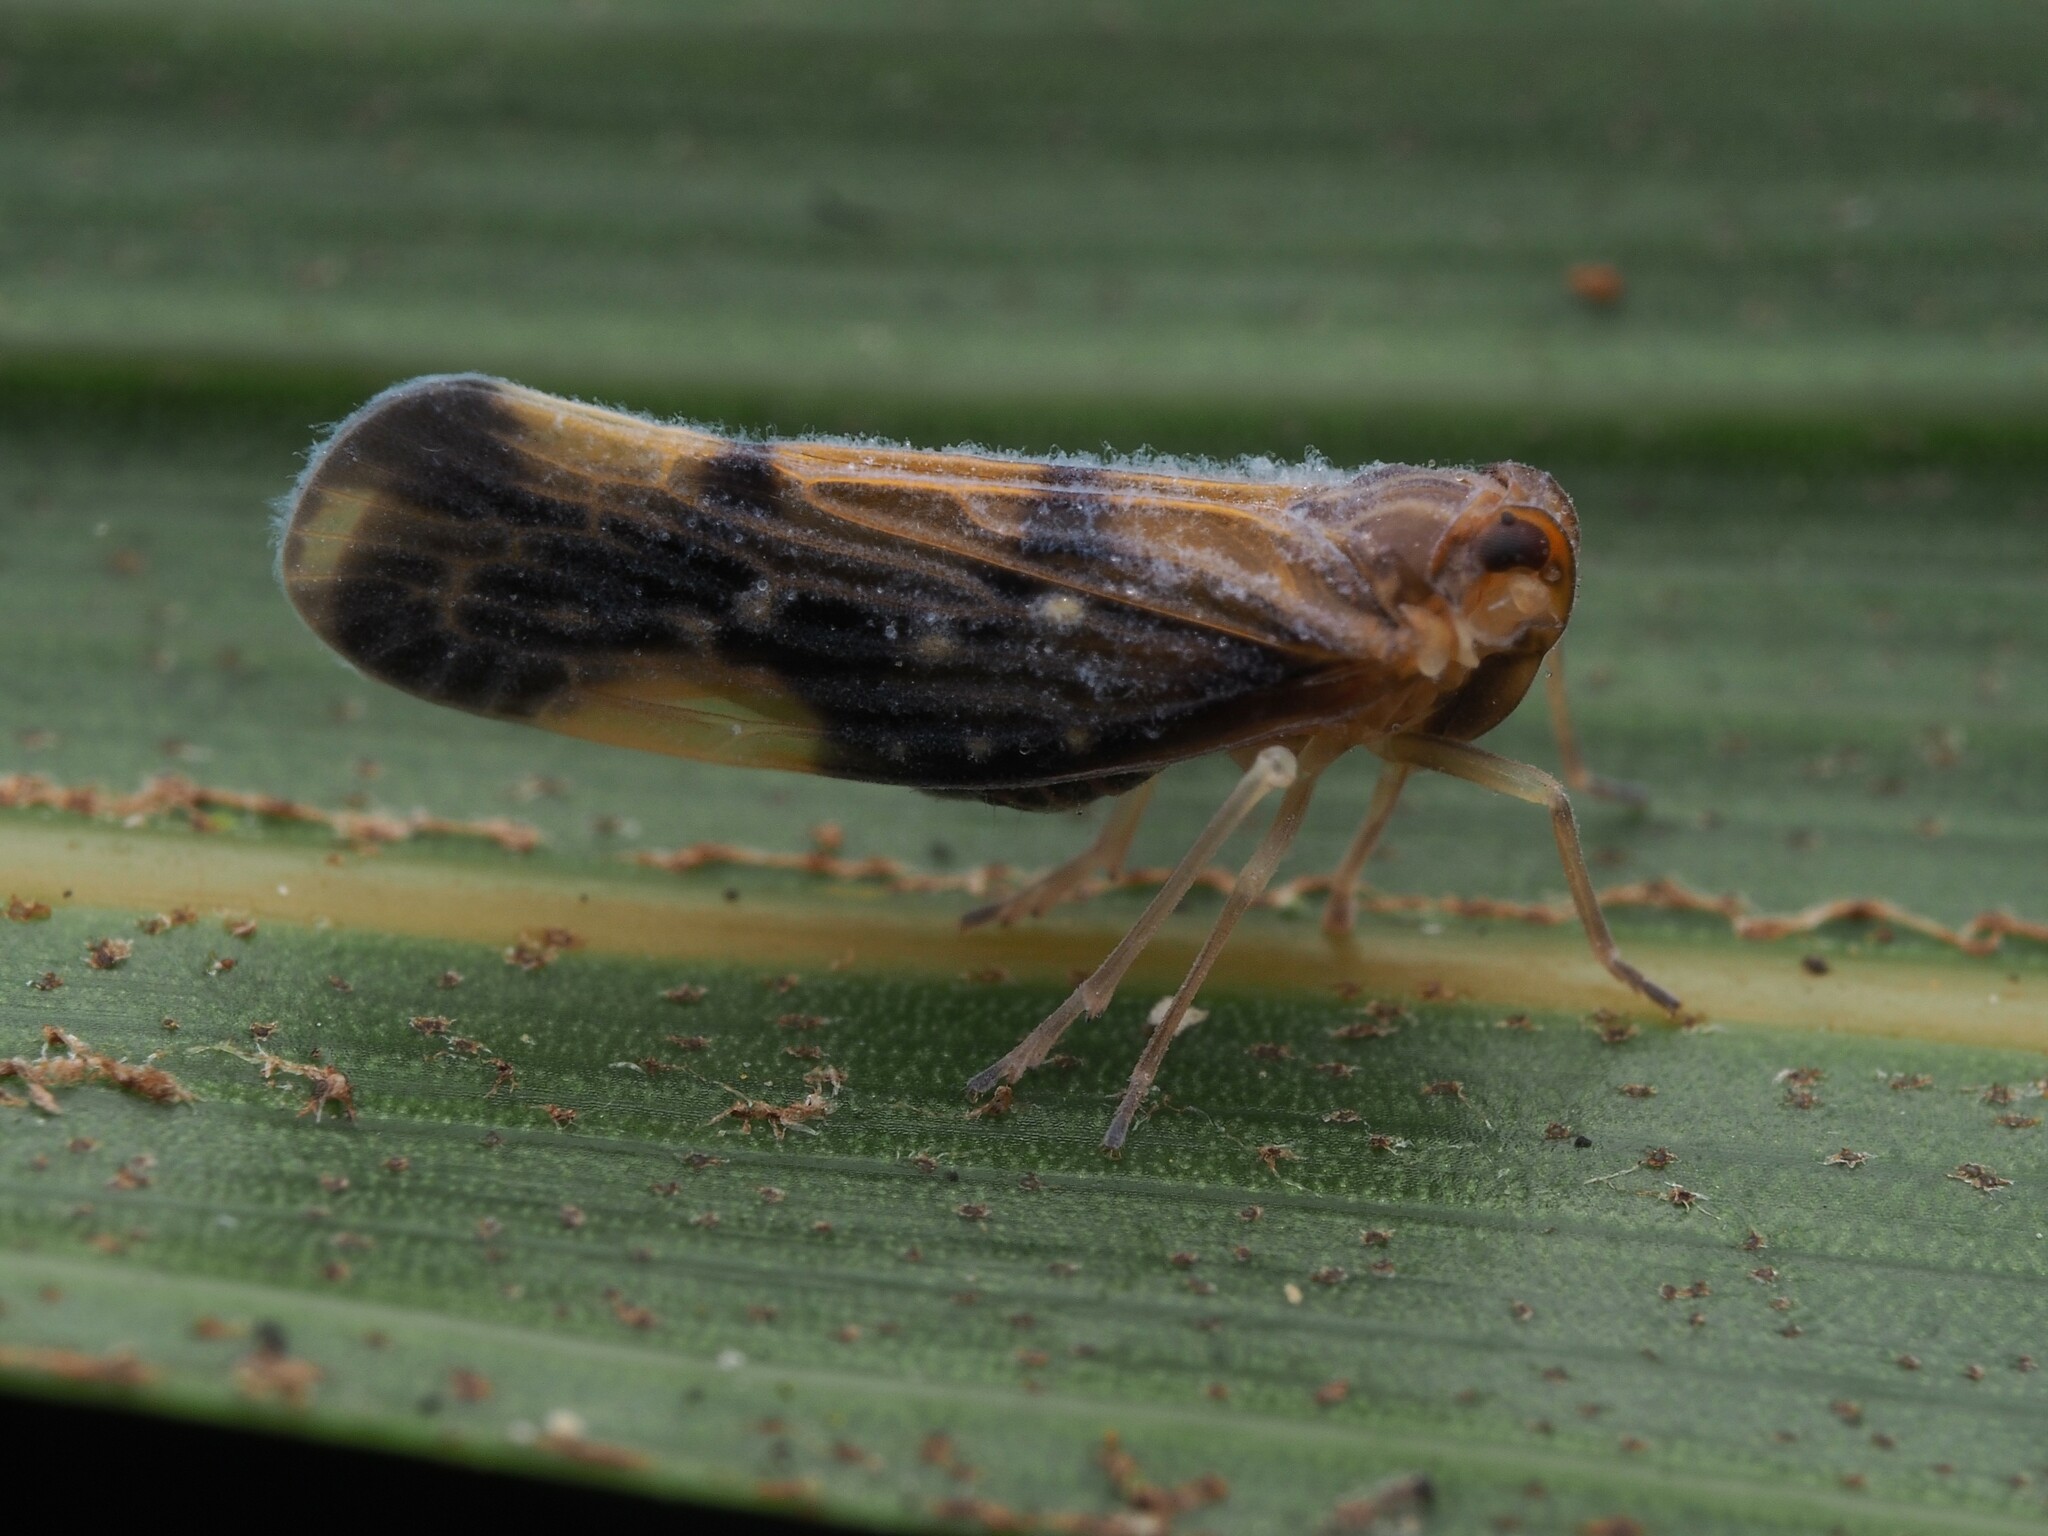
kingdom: Animalia
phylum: Arthropoda
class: Insecta
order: Hemiptera
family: Derbidae
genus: Eocenchrea
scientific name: Eocenchrea maorica
